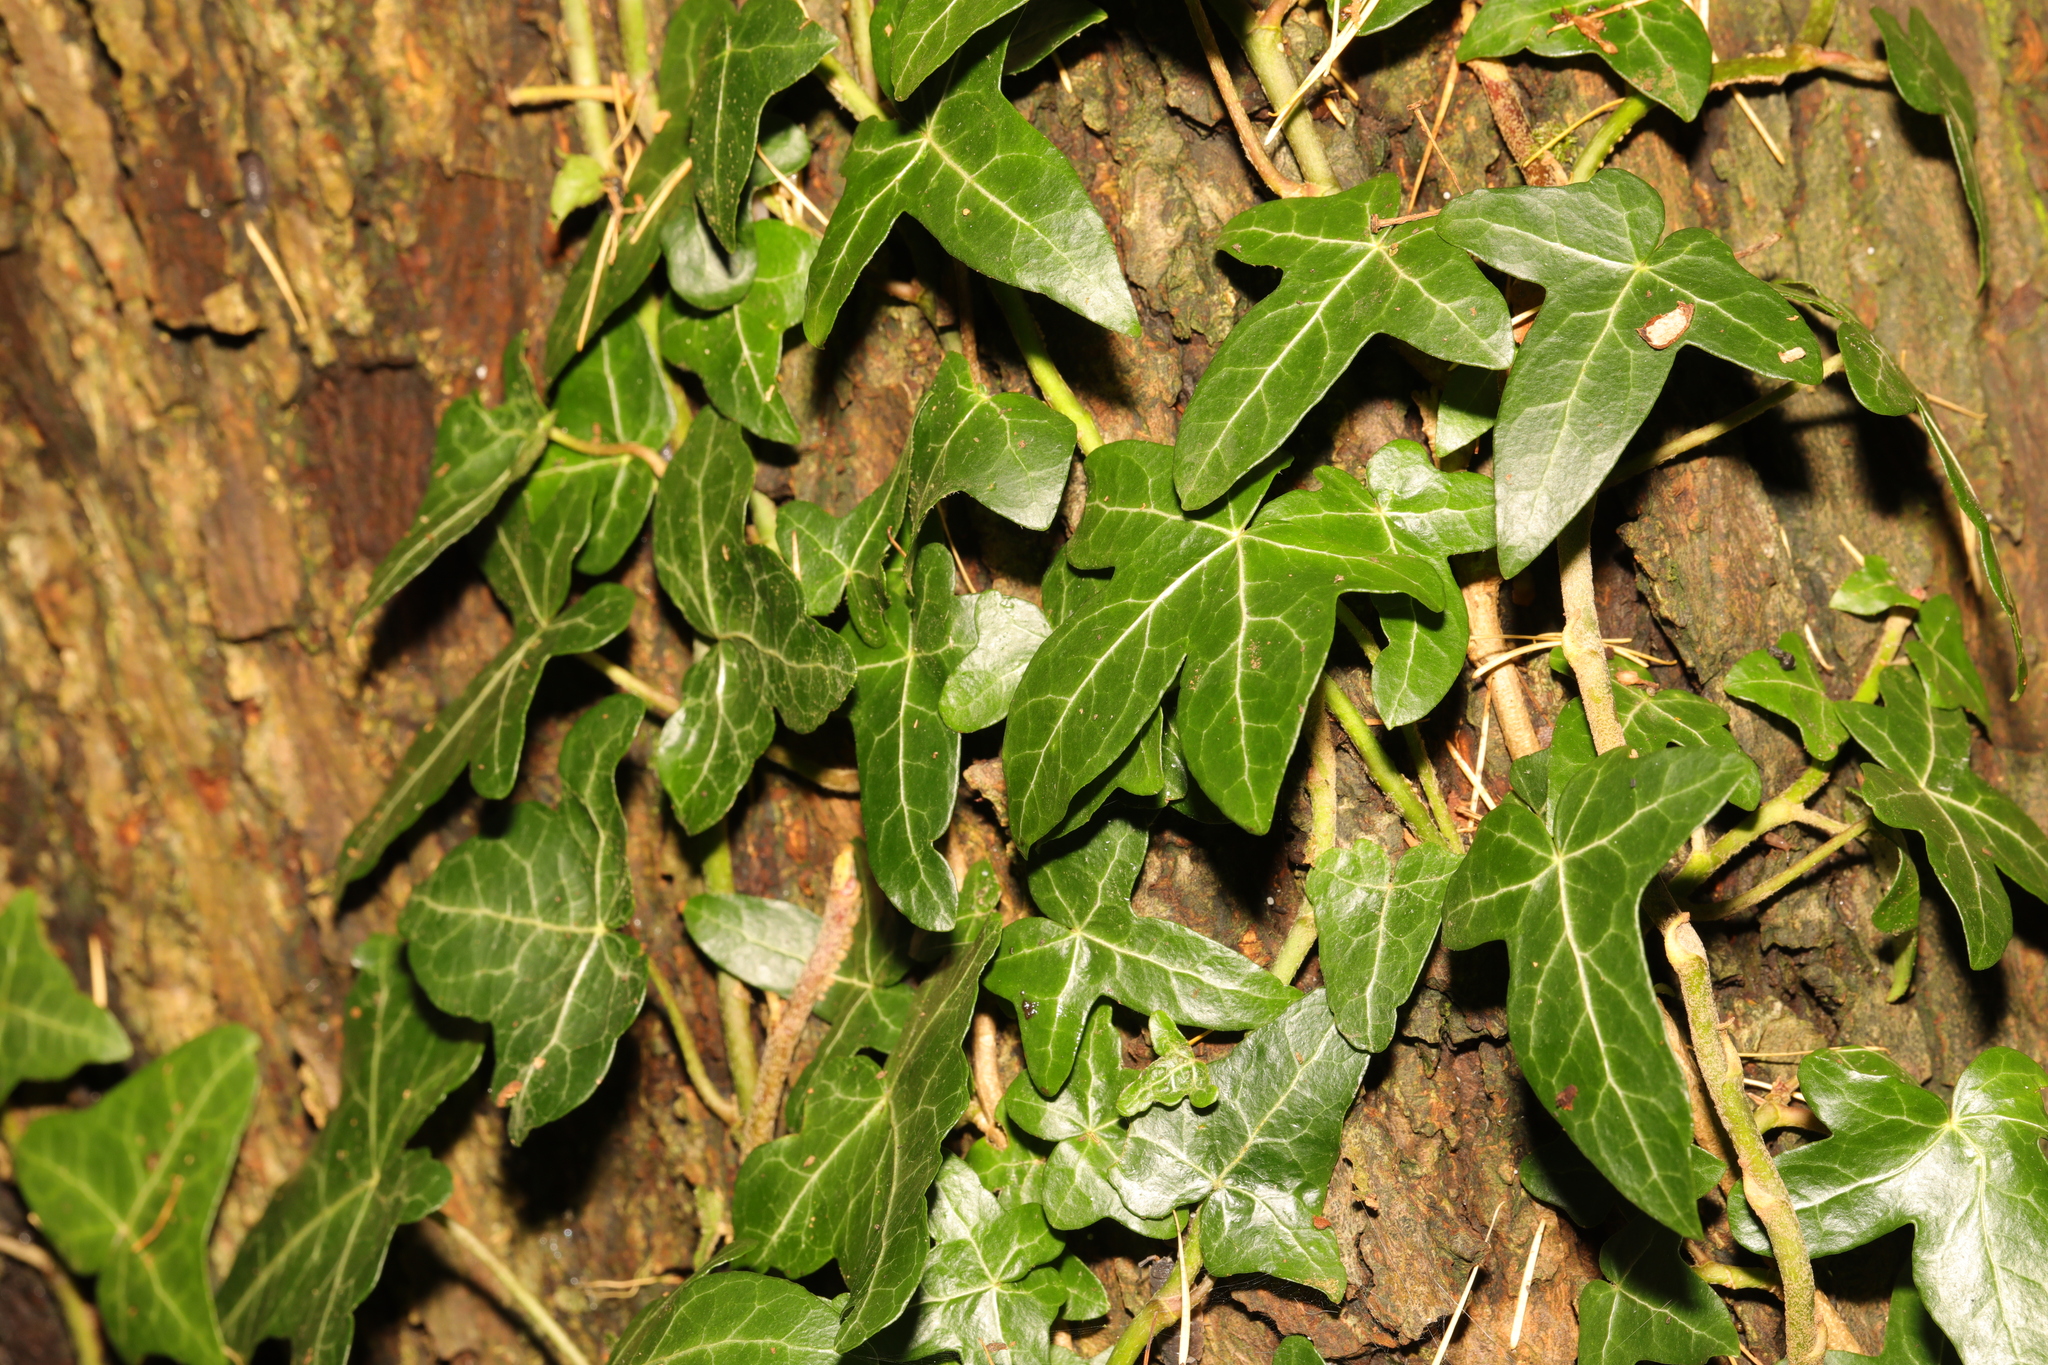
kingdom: Plantae
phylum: Tracheophyta
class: Magnoliopsida
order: Apiales
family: Araliaceae
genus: Hedera
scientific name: Hedera helix
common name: Ivy
